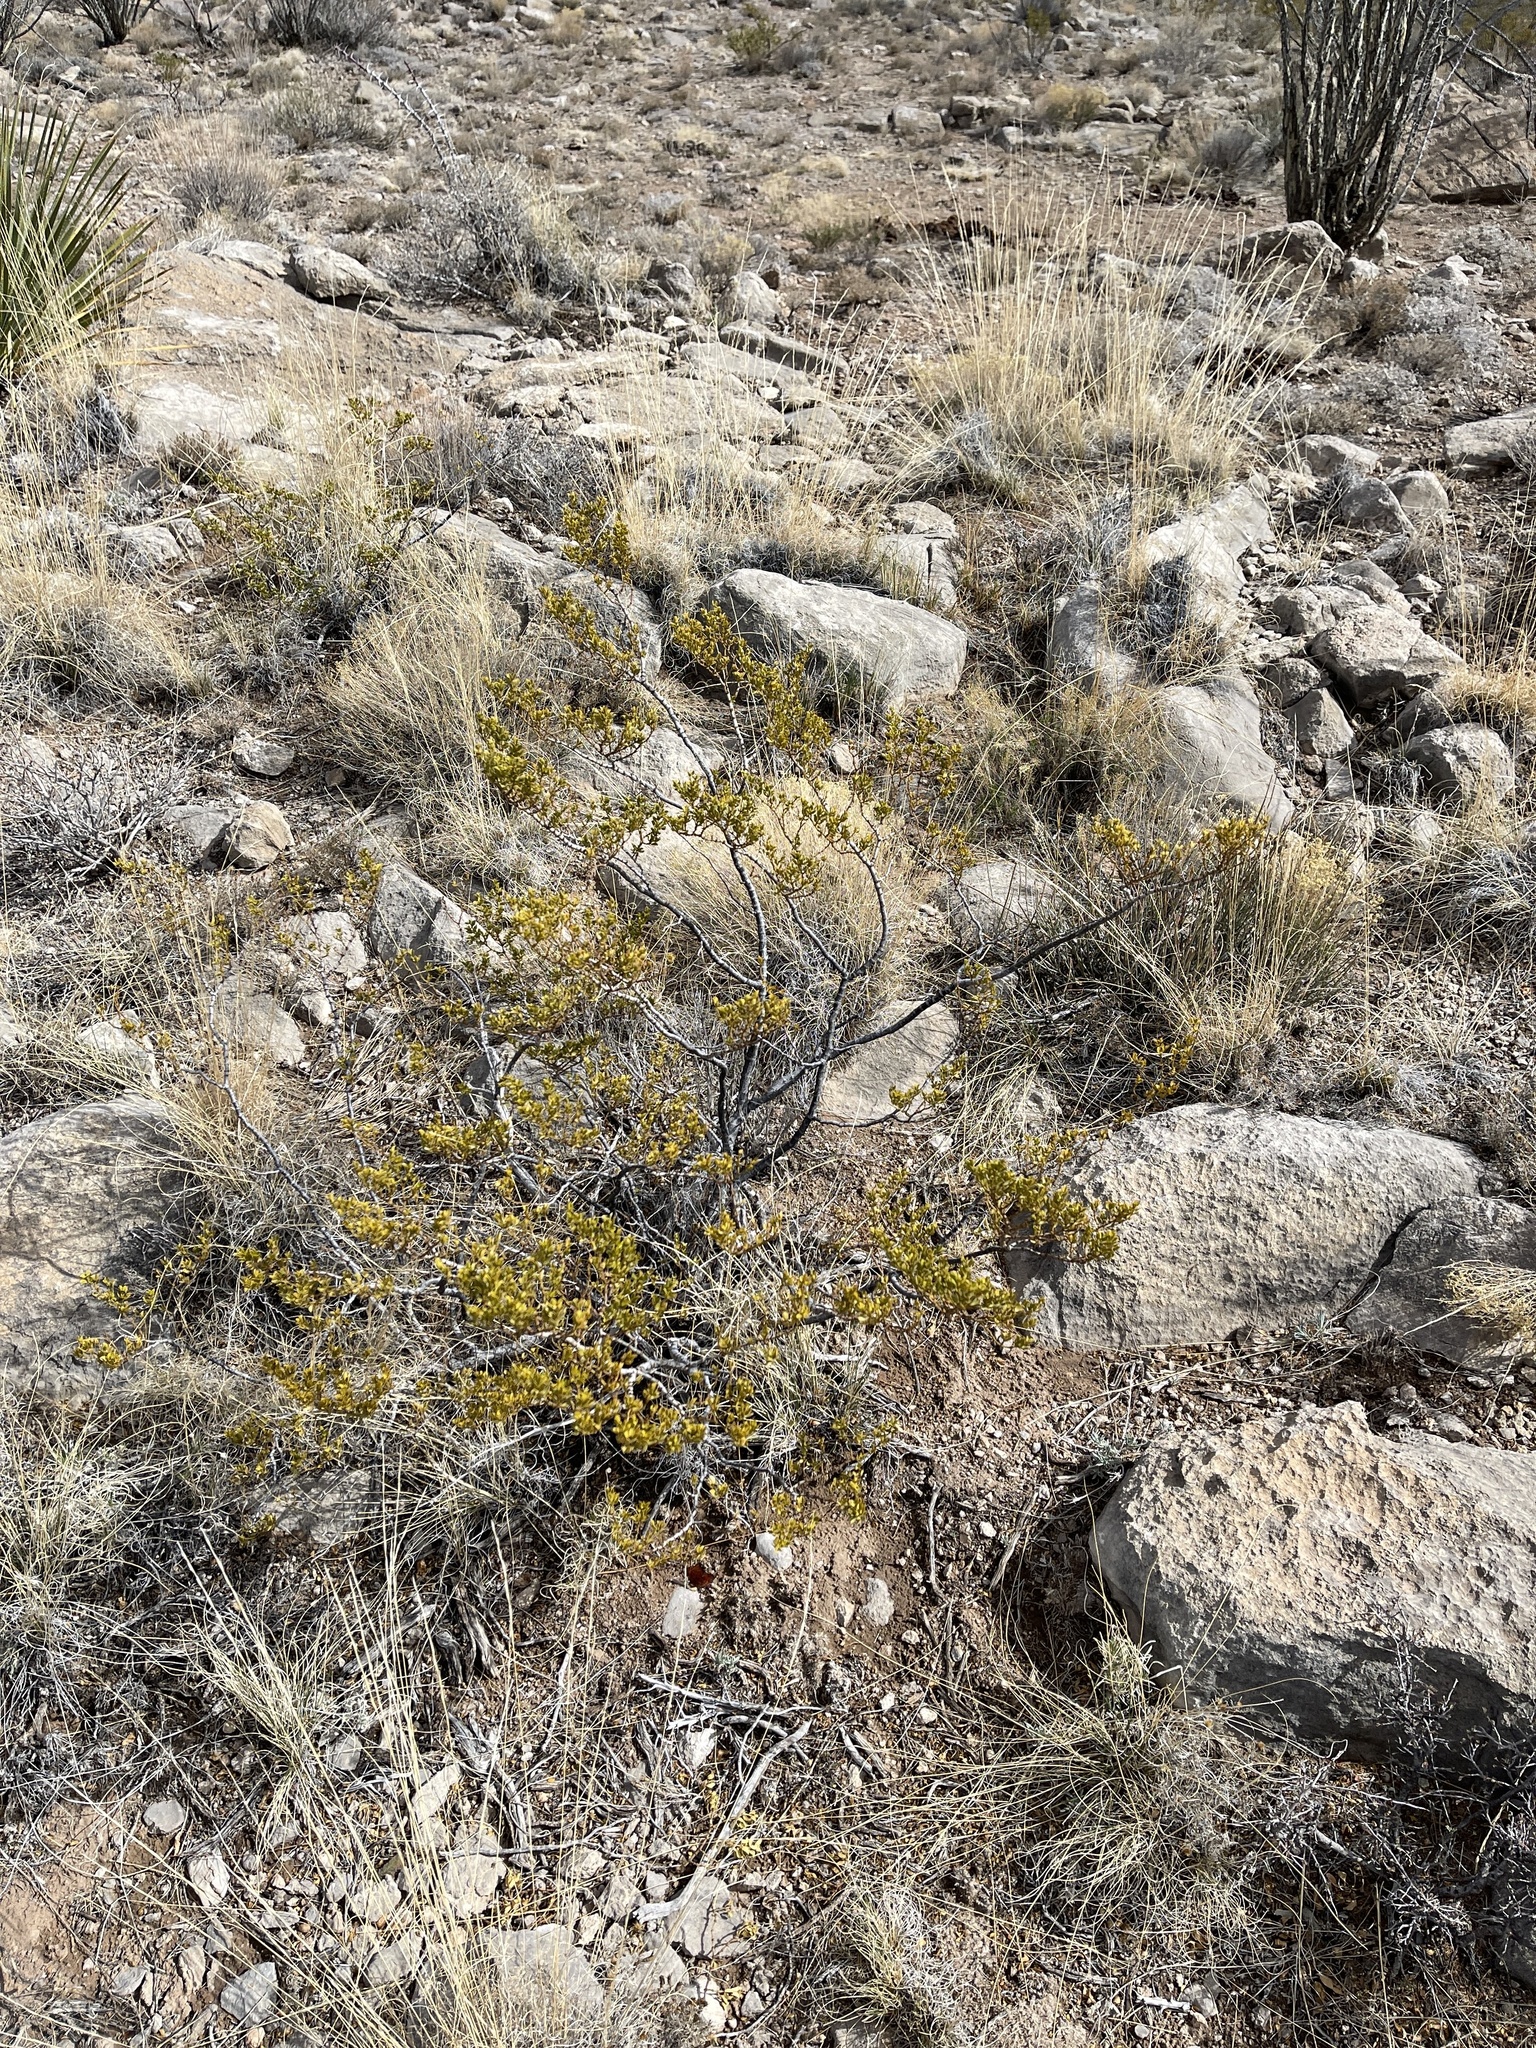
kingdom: Plantae
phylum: Tracheophyta
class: Magnoliopsida
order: Zygophyllales
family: Zygophyllaceae
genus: Larrea
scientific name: Larrea tridentata
